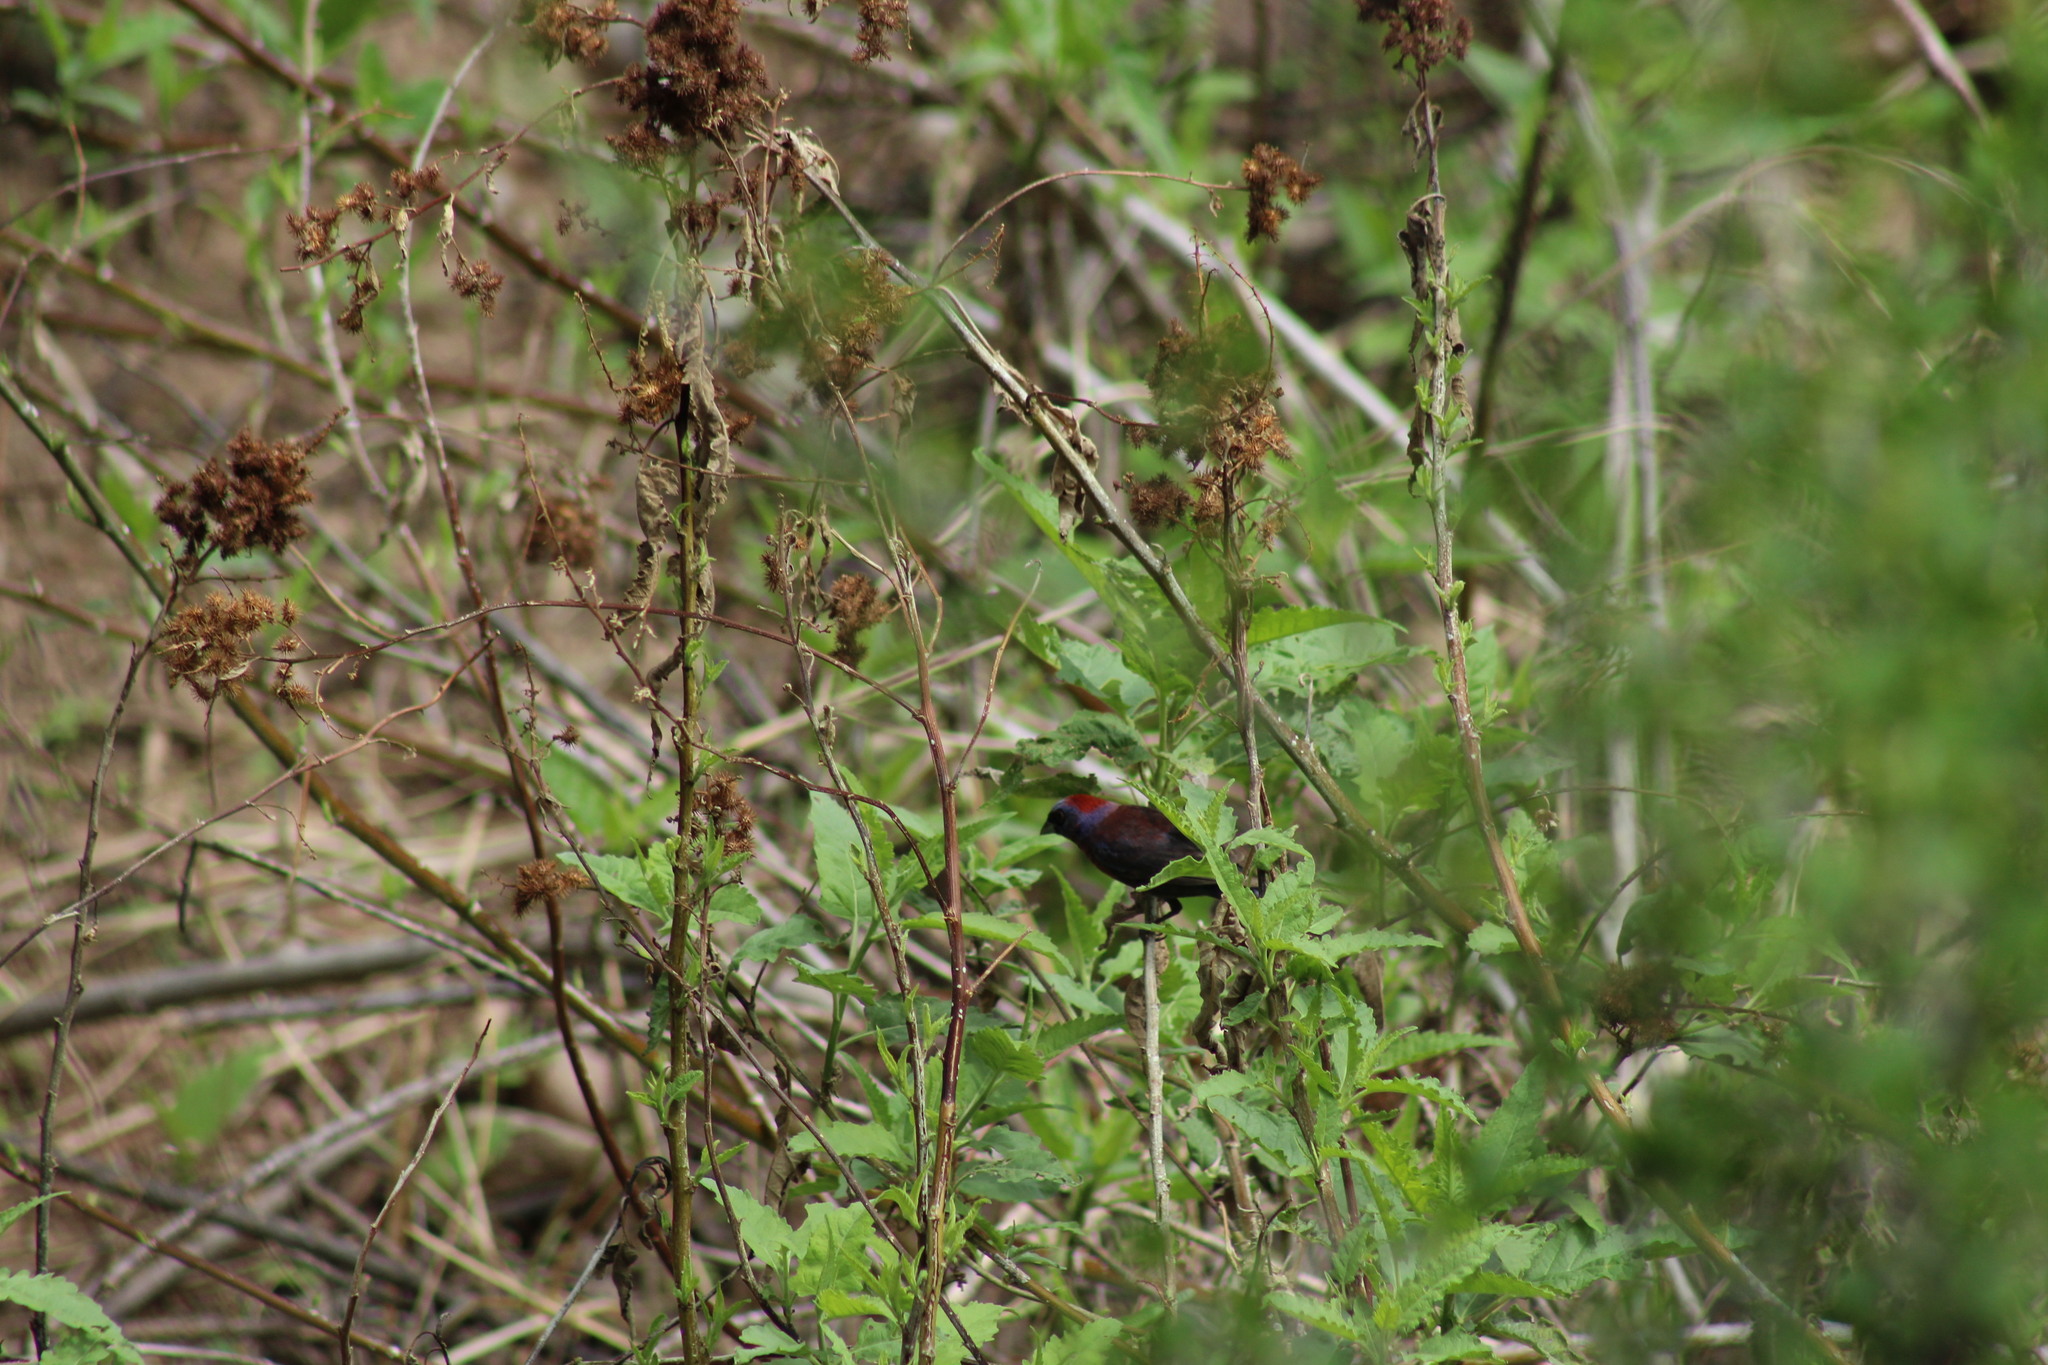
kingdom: Animalia
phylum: Chordata
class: Aves
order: Passeriformes
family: Cardinalidae
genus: Passerina
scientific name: Passerina versicolor
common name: Varied bunting
